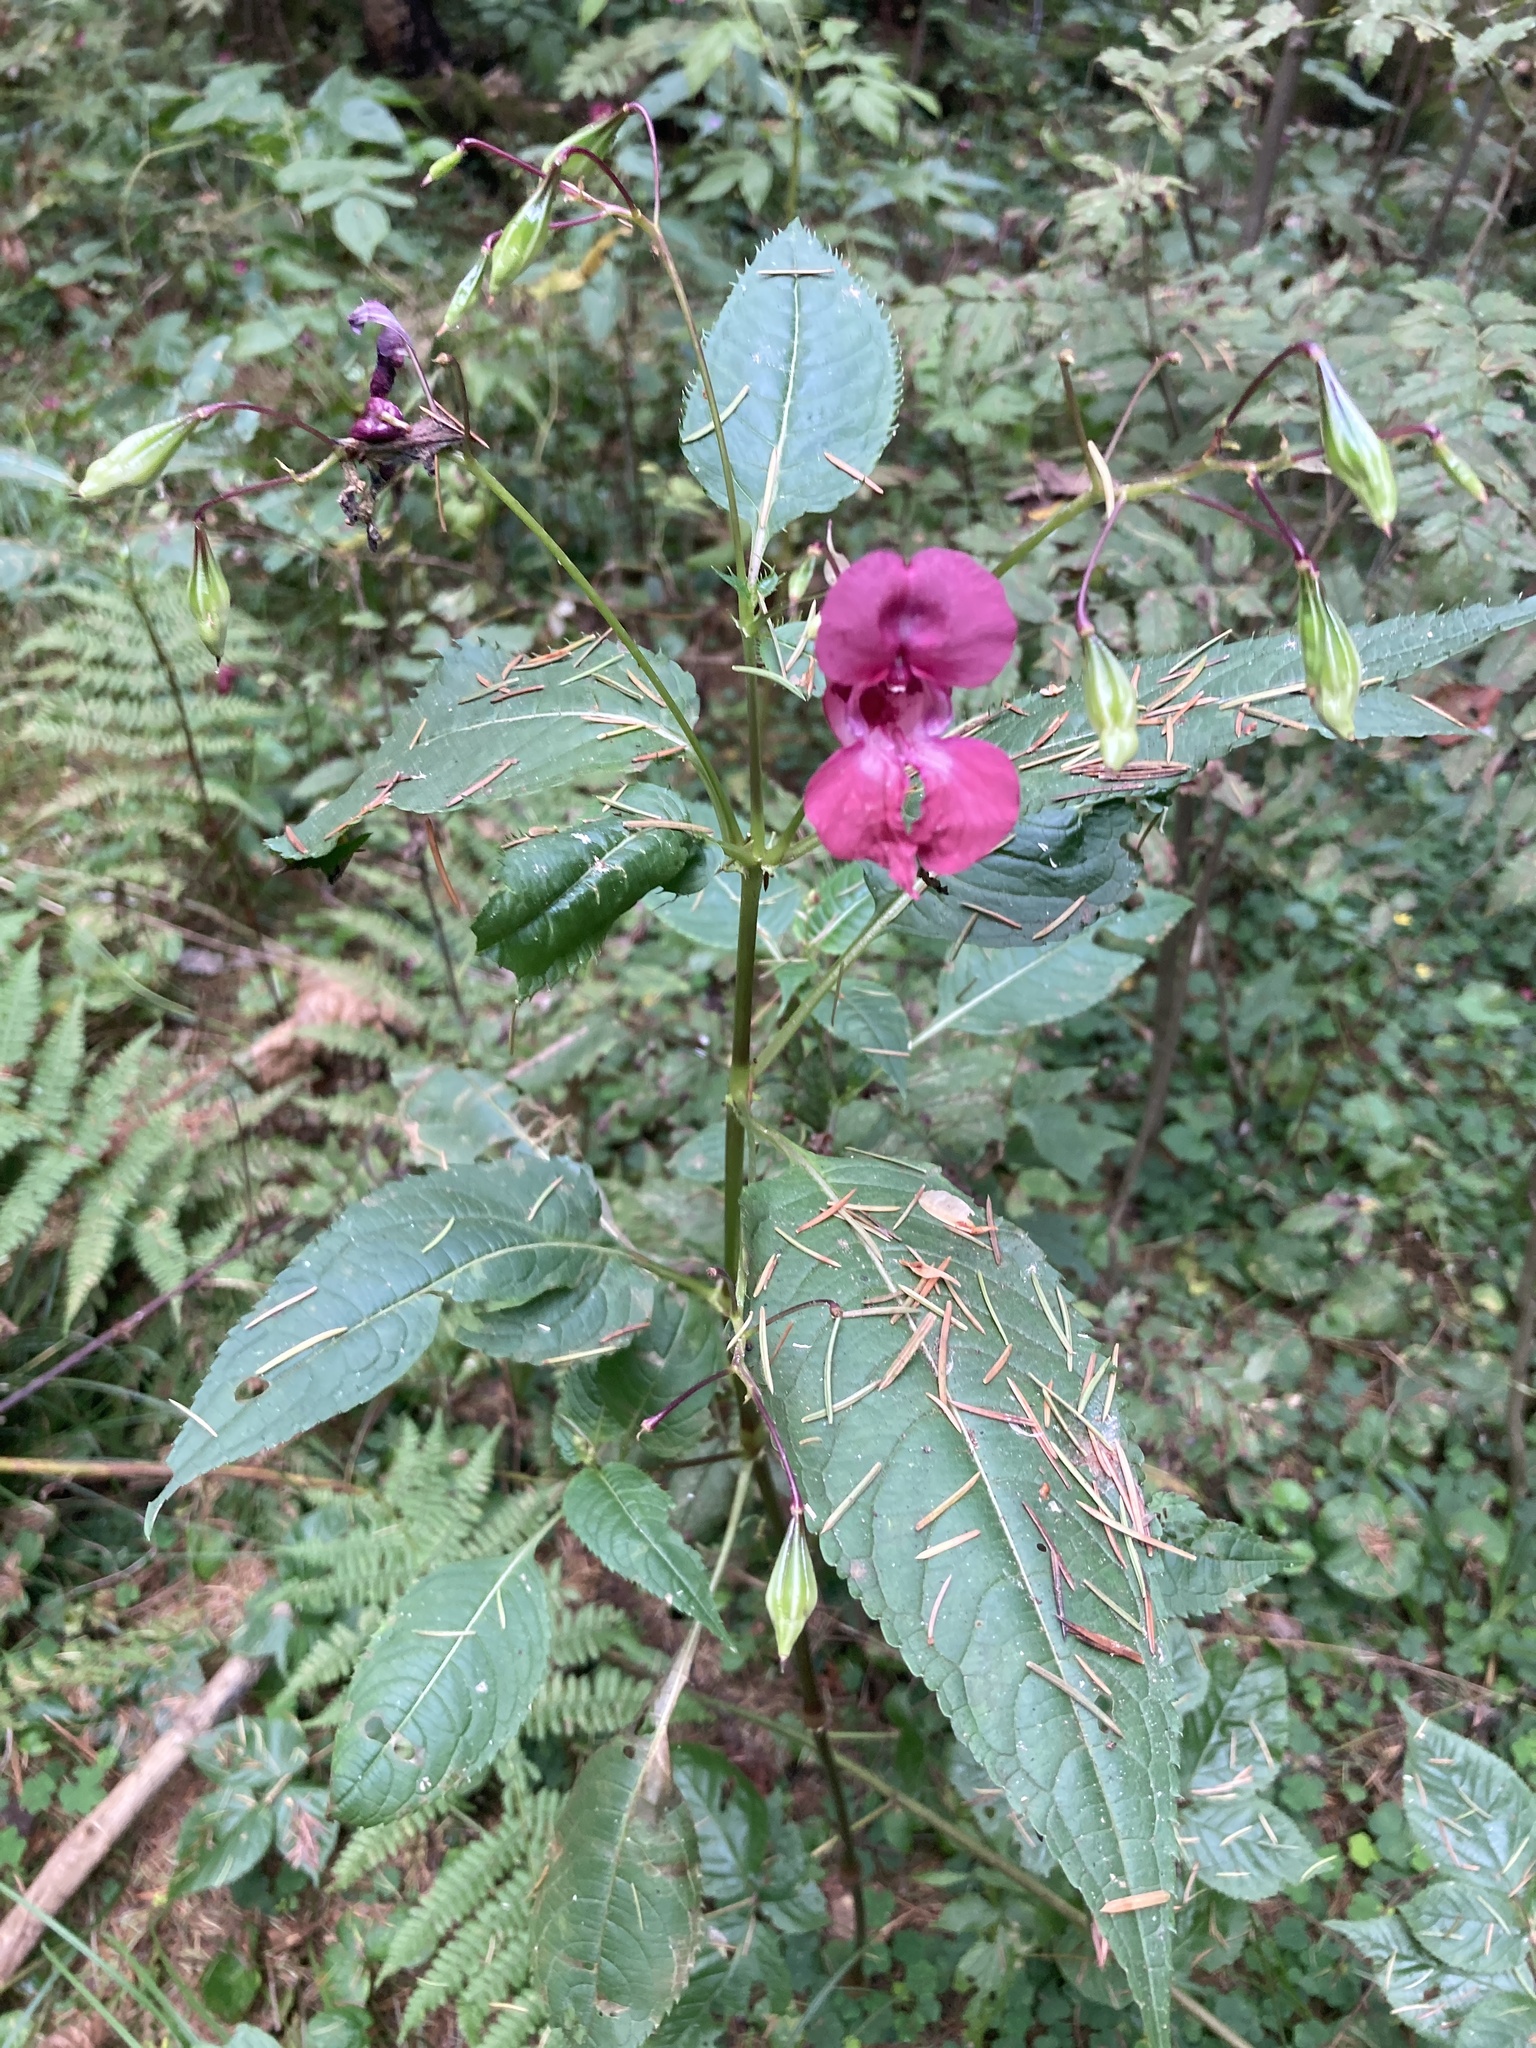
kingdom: Plantae
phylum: Tracheophyta
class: Magnoliopsida
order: Ericales
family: Balsaminaceae
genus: Impatiens
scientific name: Impatiens glandulifera
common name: Himalayan balsam
